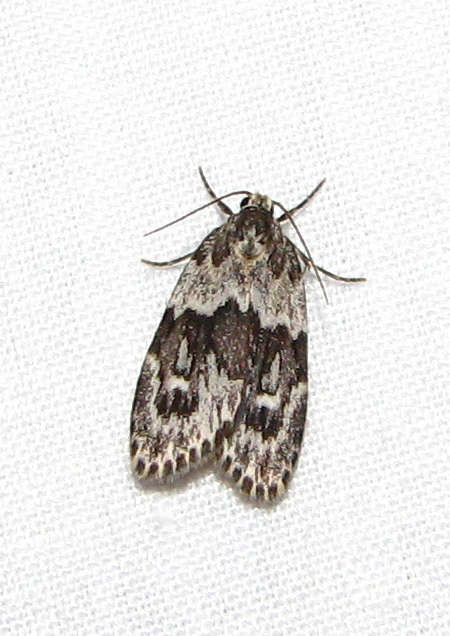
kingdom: Animalia
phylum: Arthropoda
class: Insecta
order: Lepidoptera
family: Erebidae
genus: Halone
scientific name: Halone prosenes
